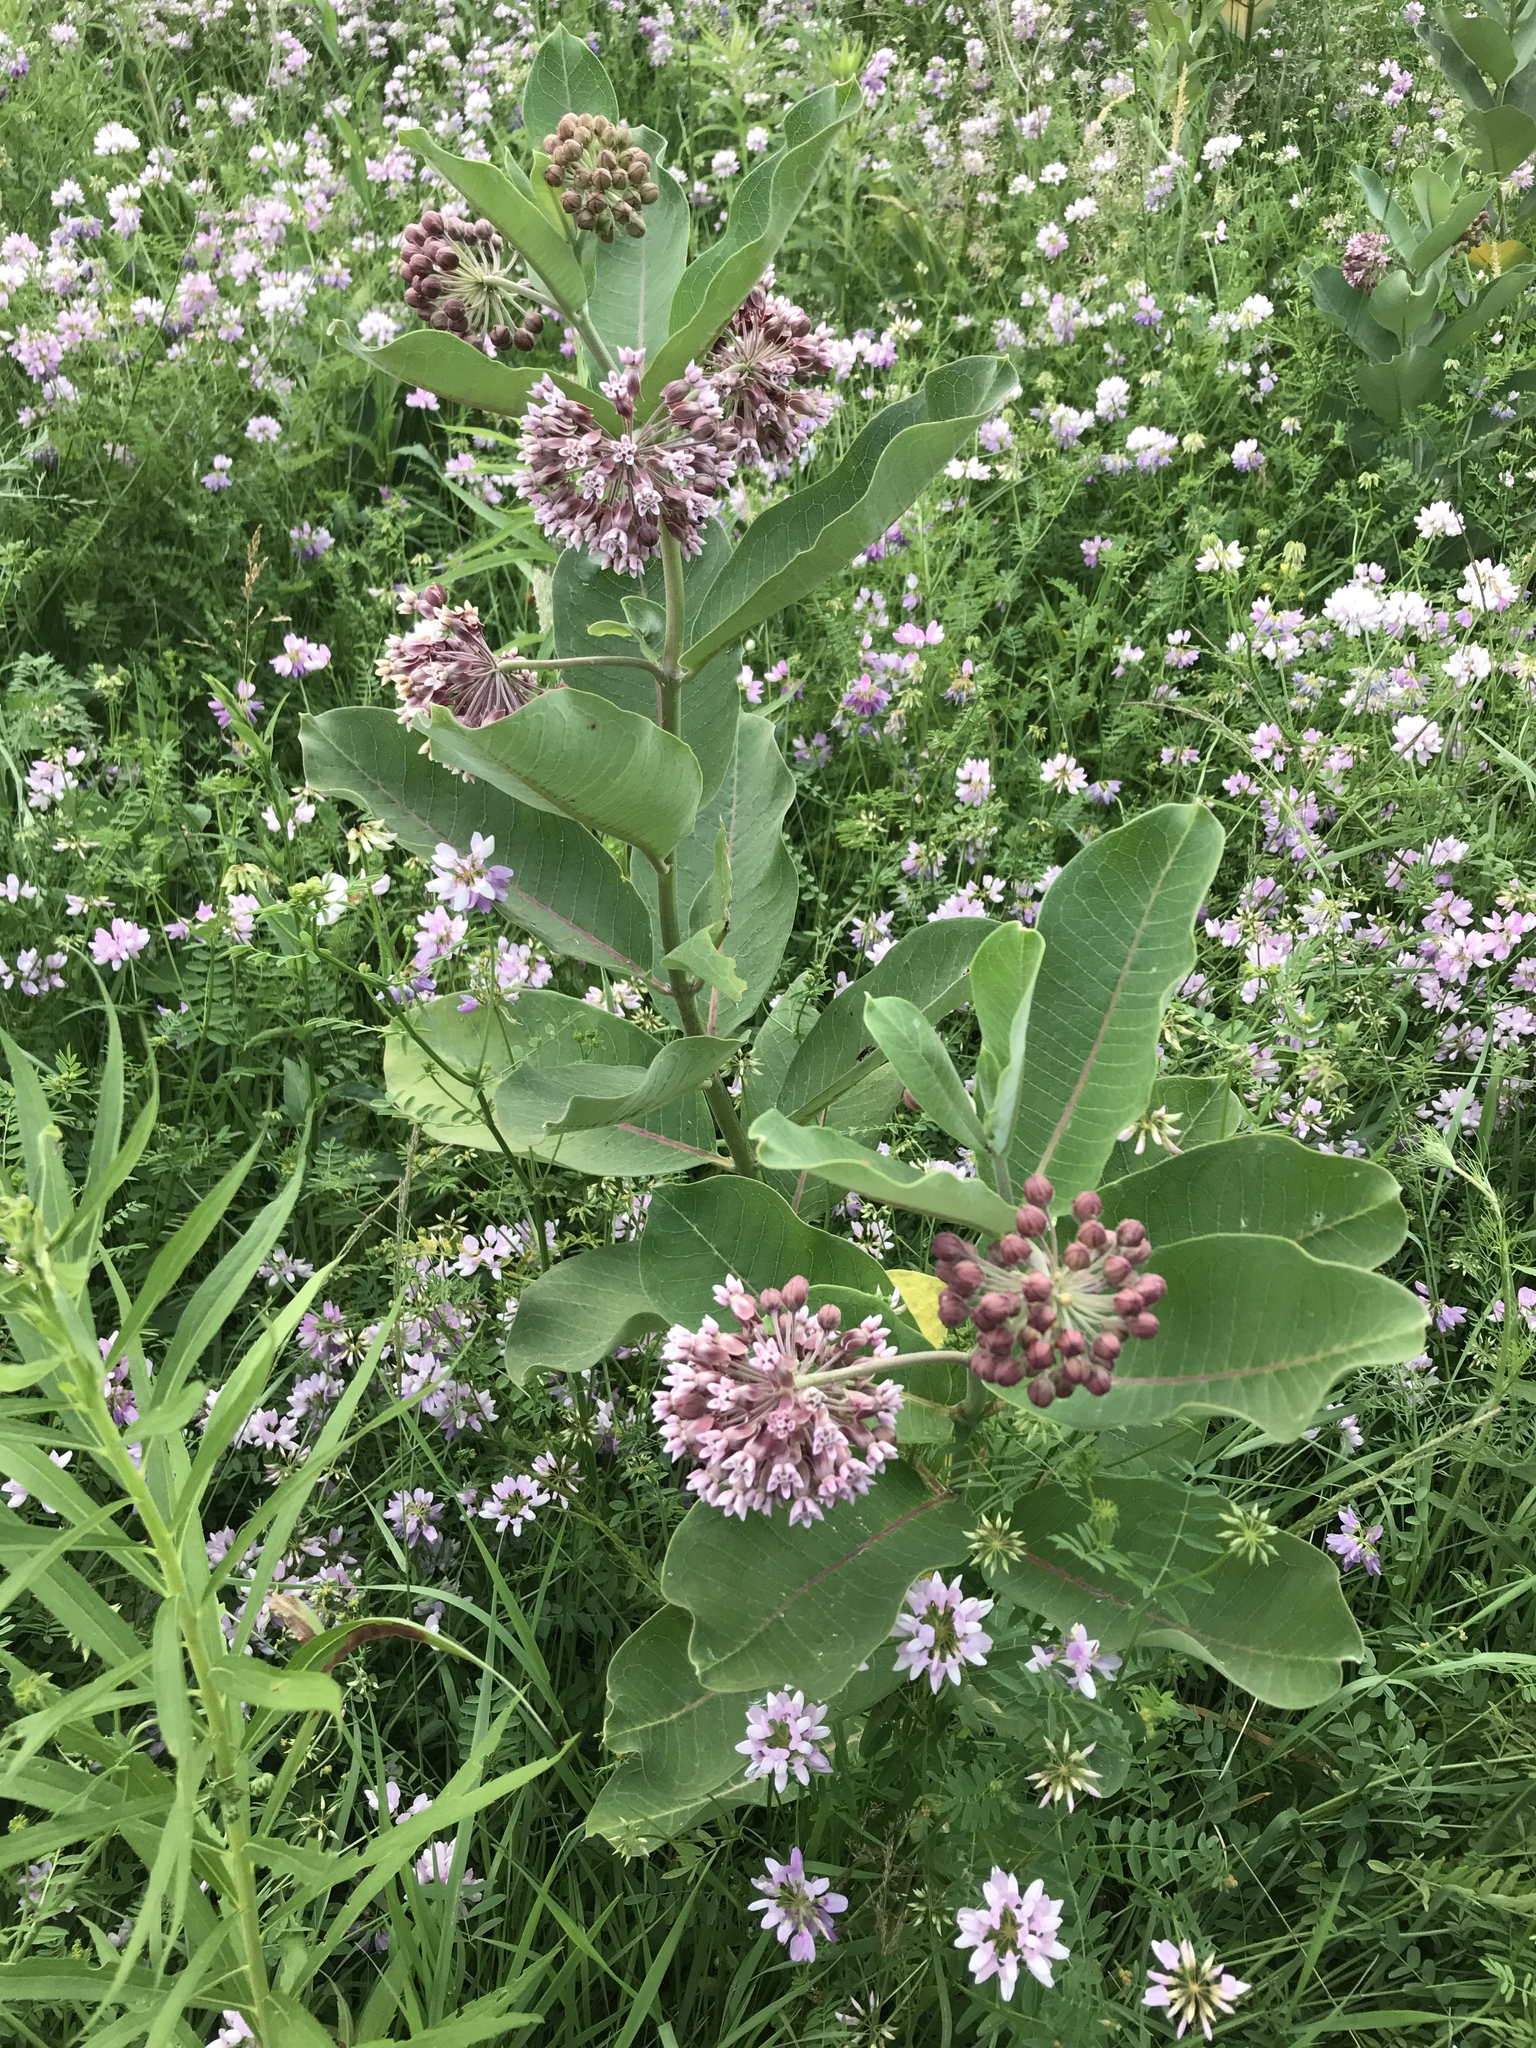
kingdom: Plantae
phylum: Tracheophyta
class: Magnoliopsida
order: Gentianales
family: Apocynaceae
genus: Asclepias
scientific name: Asclepias syriaca
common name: Common milkweed
